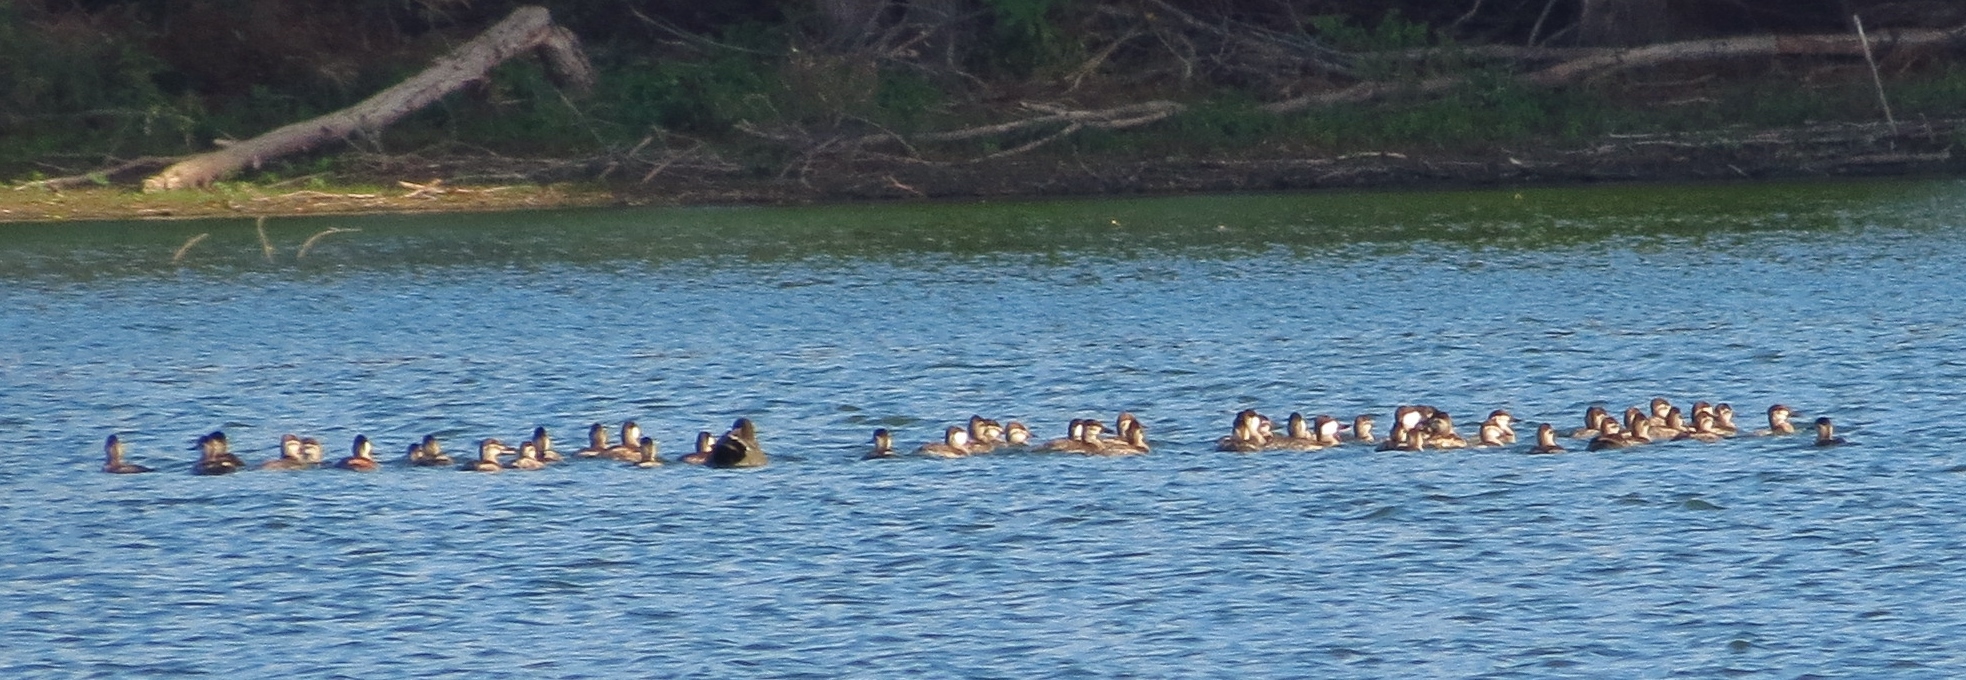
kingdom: Animalia
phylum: Chordata
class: Aves
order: Anseriformes
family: Anatidae
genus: Oxyura
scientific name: Oxyura jamaicensis
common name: Ruddy duck
